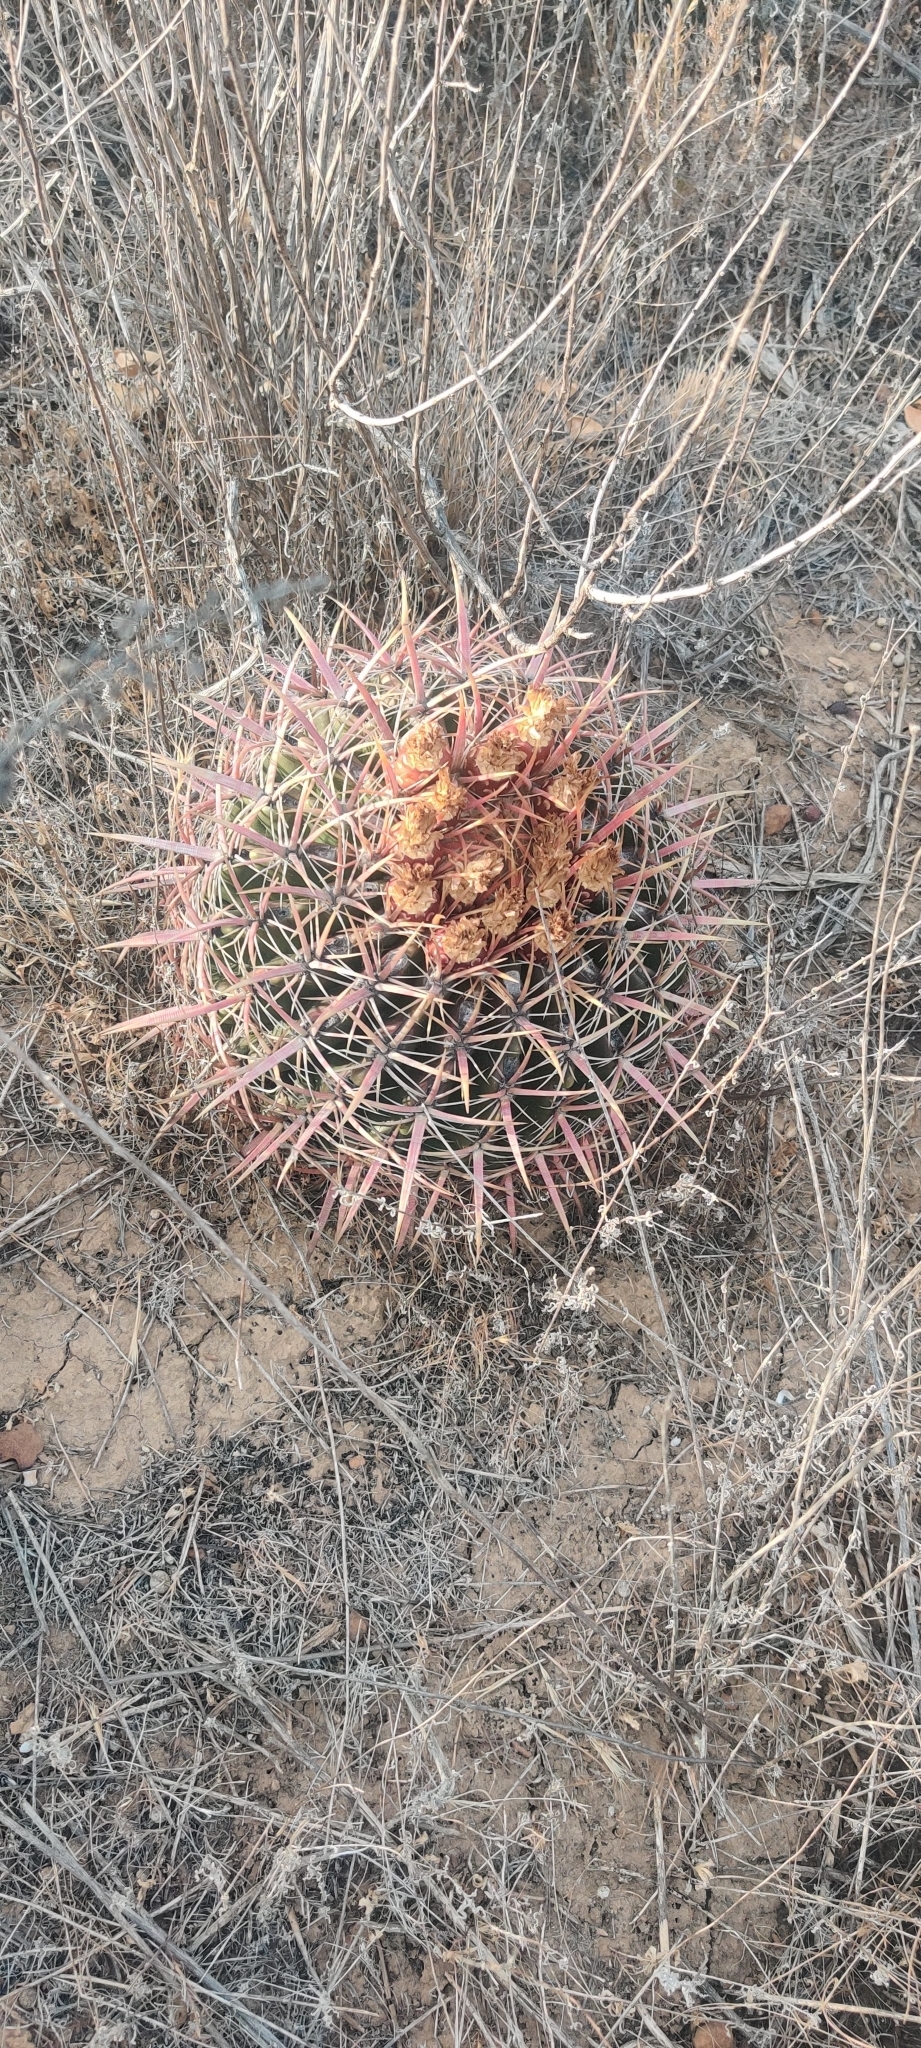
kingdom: Plantae
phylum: Tracheophyta
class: Magnoliopsida
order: Caryophyllales
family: Cactaceae
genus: Ferocactus
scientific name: Ferocactus viridescens
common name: San diego barrel cactus
